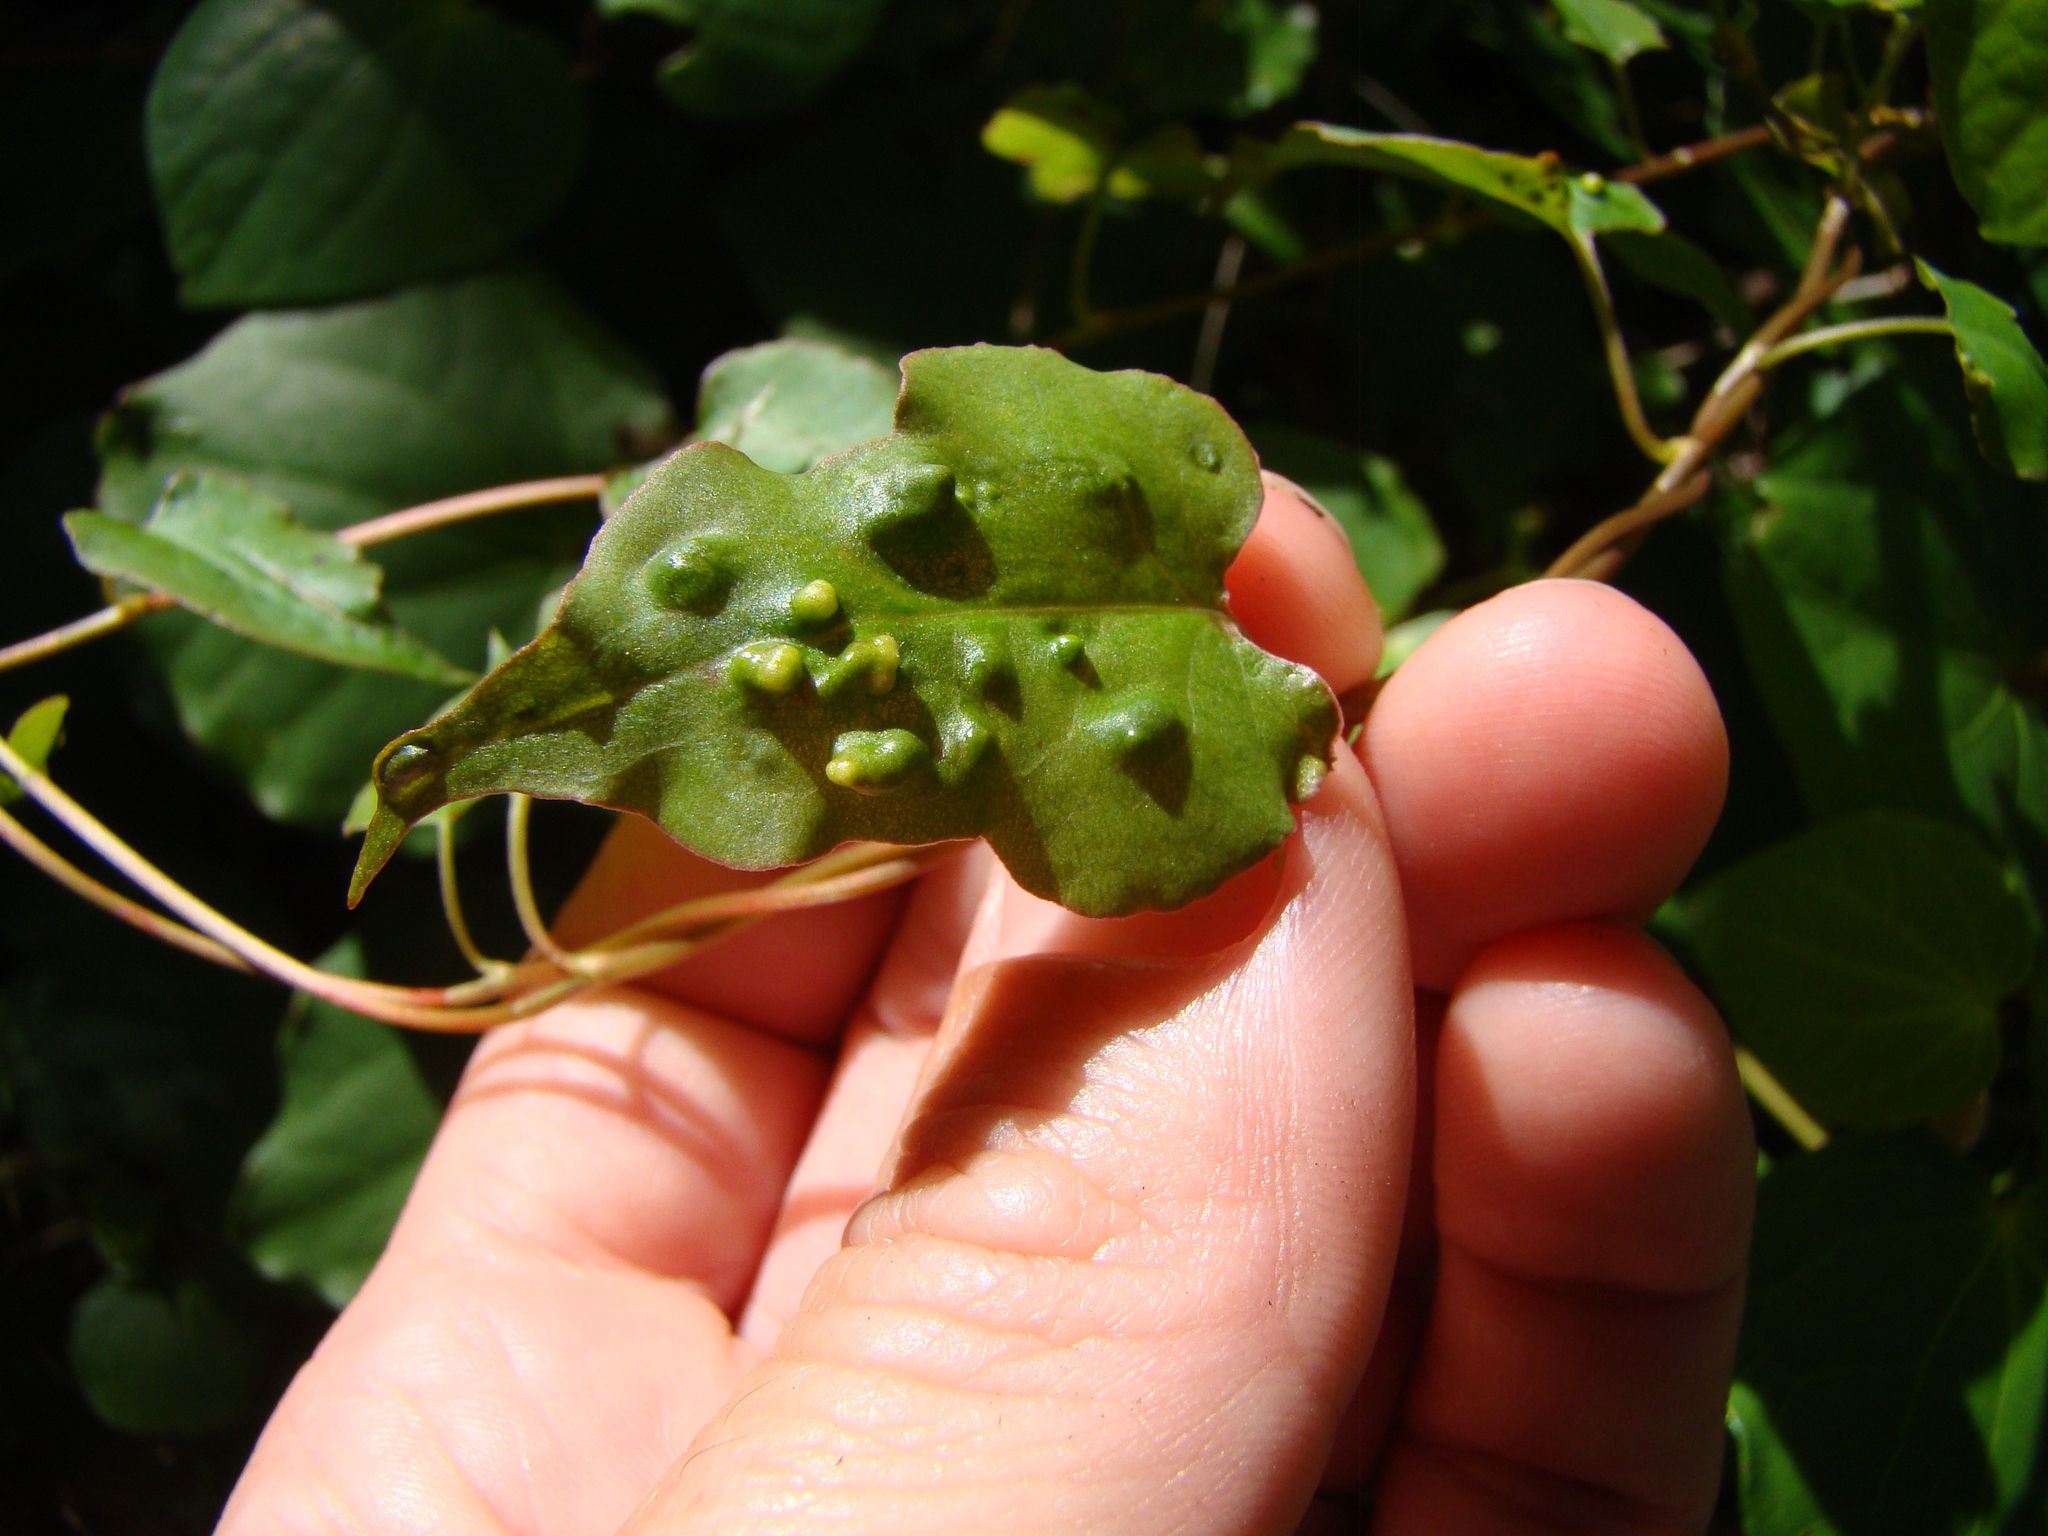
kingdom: Animalia
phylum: Arthropoda
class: Arachnida
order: Trombidiformes
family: Eriophyidae
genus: Aceria
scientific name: Aceria lamii
